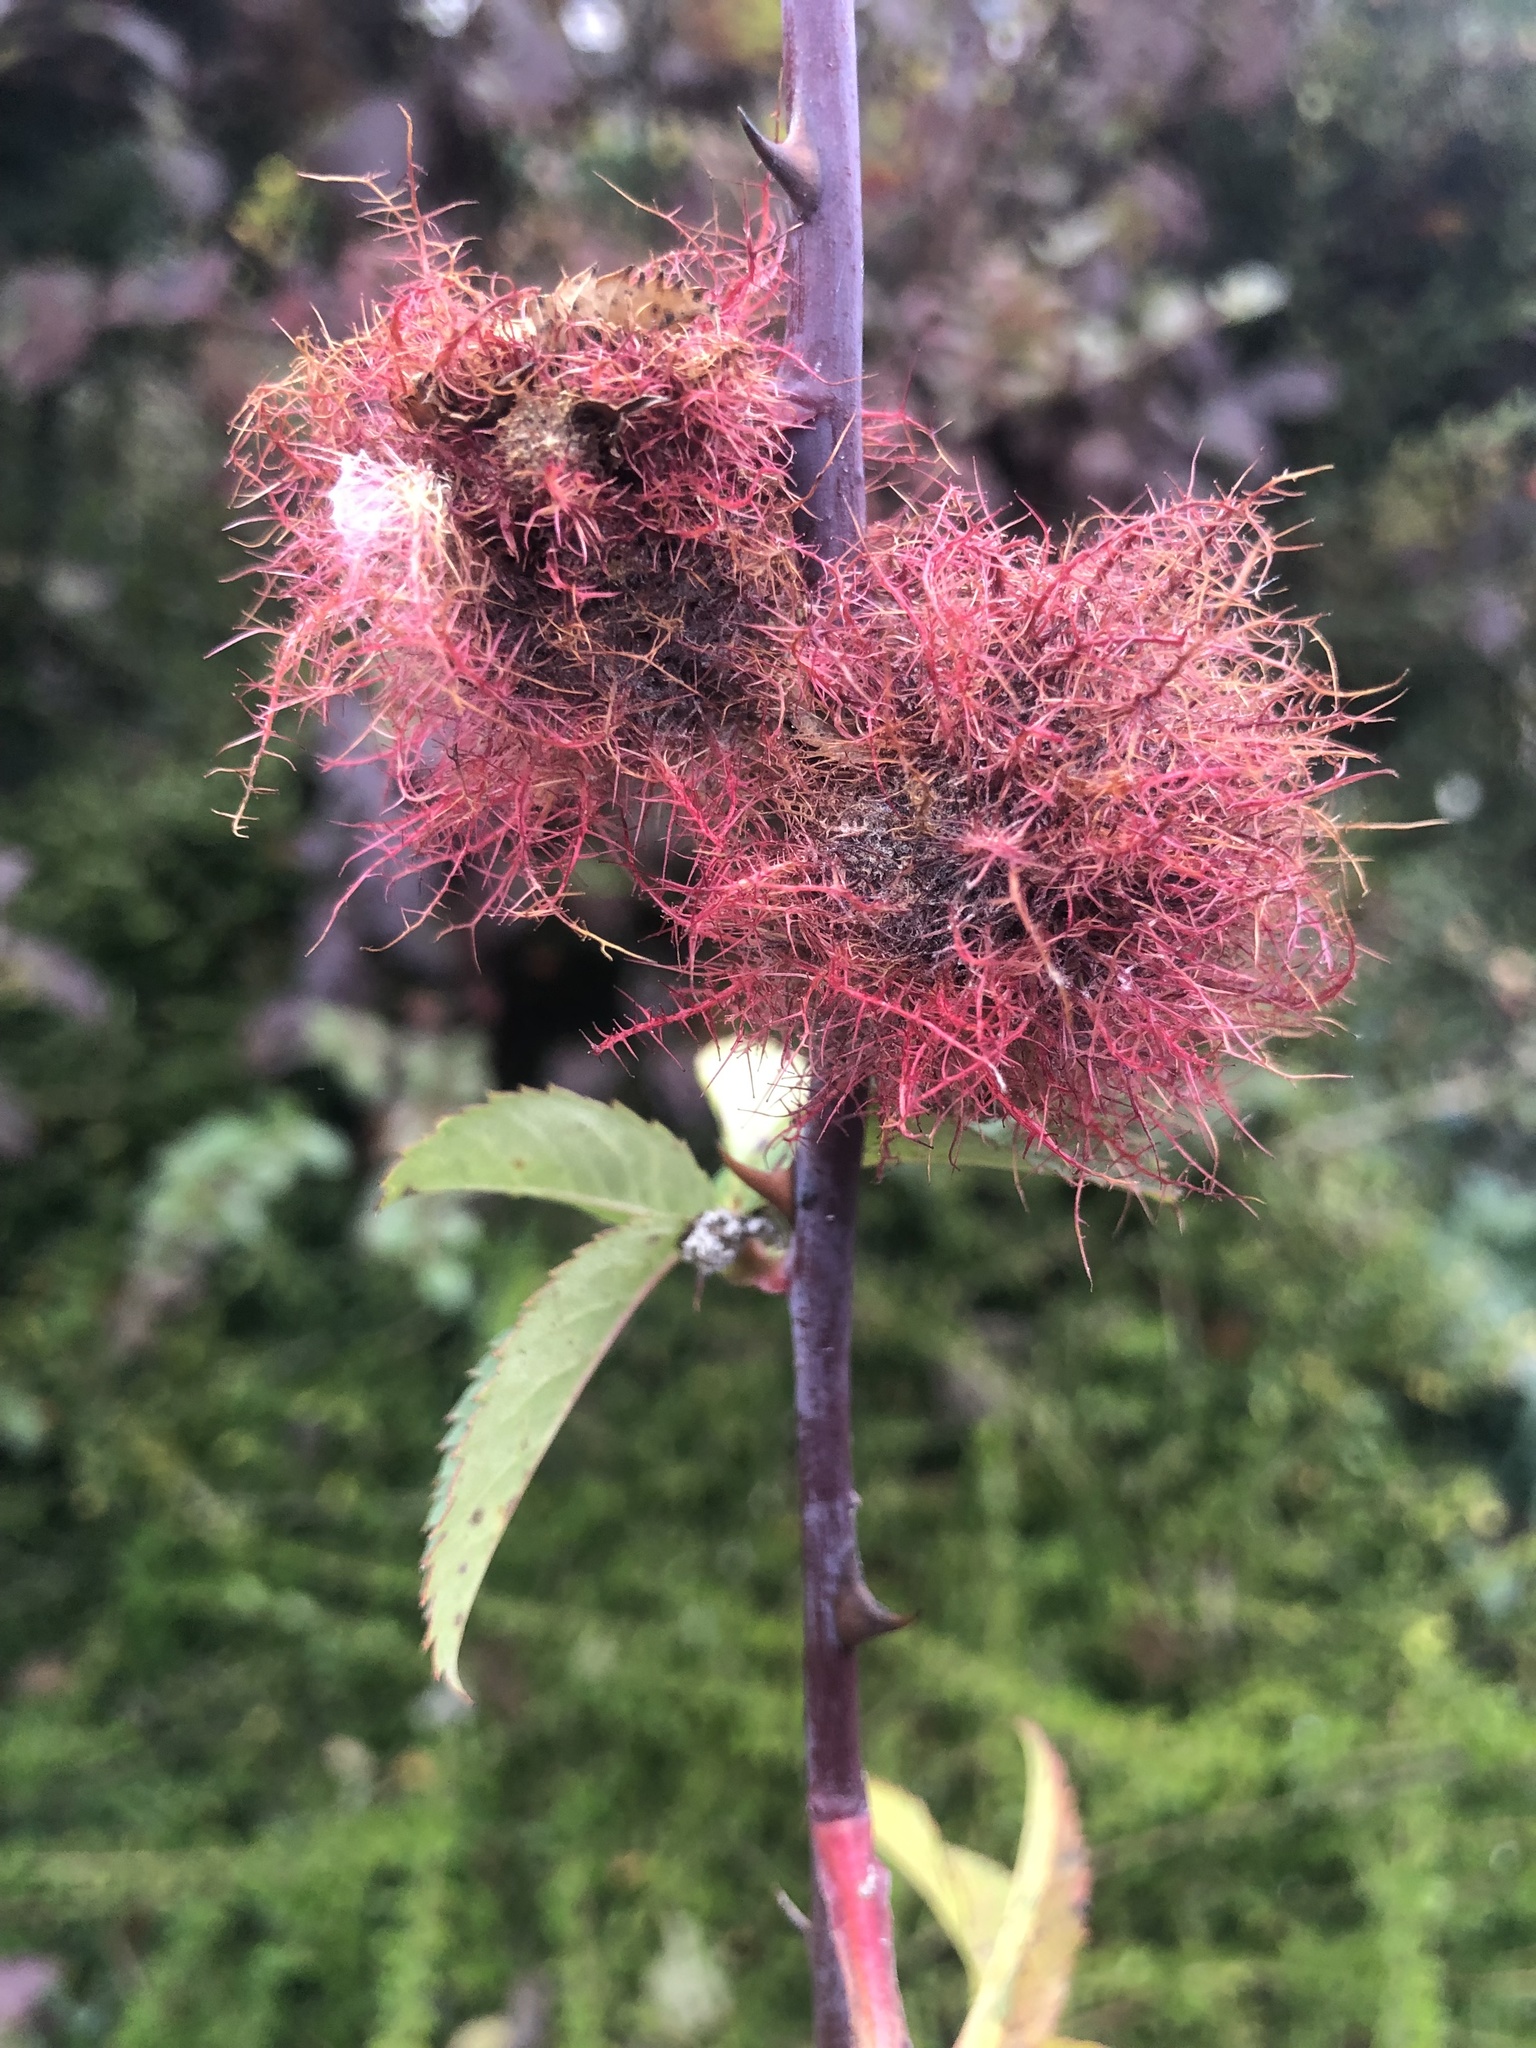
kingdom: Animalia
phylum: Arthropoda
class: Insecta
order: Hymenoptera
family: Cynipidae
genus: Diplolepis
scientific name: Diplolepis rosae
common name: Bedeguar gall
